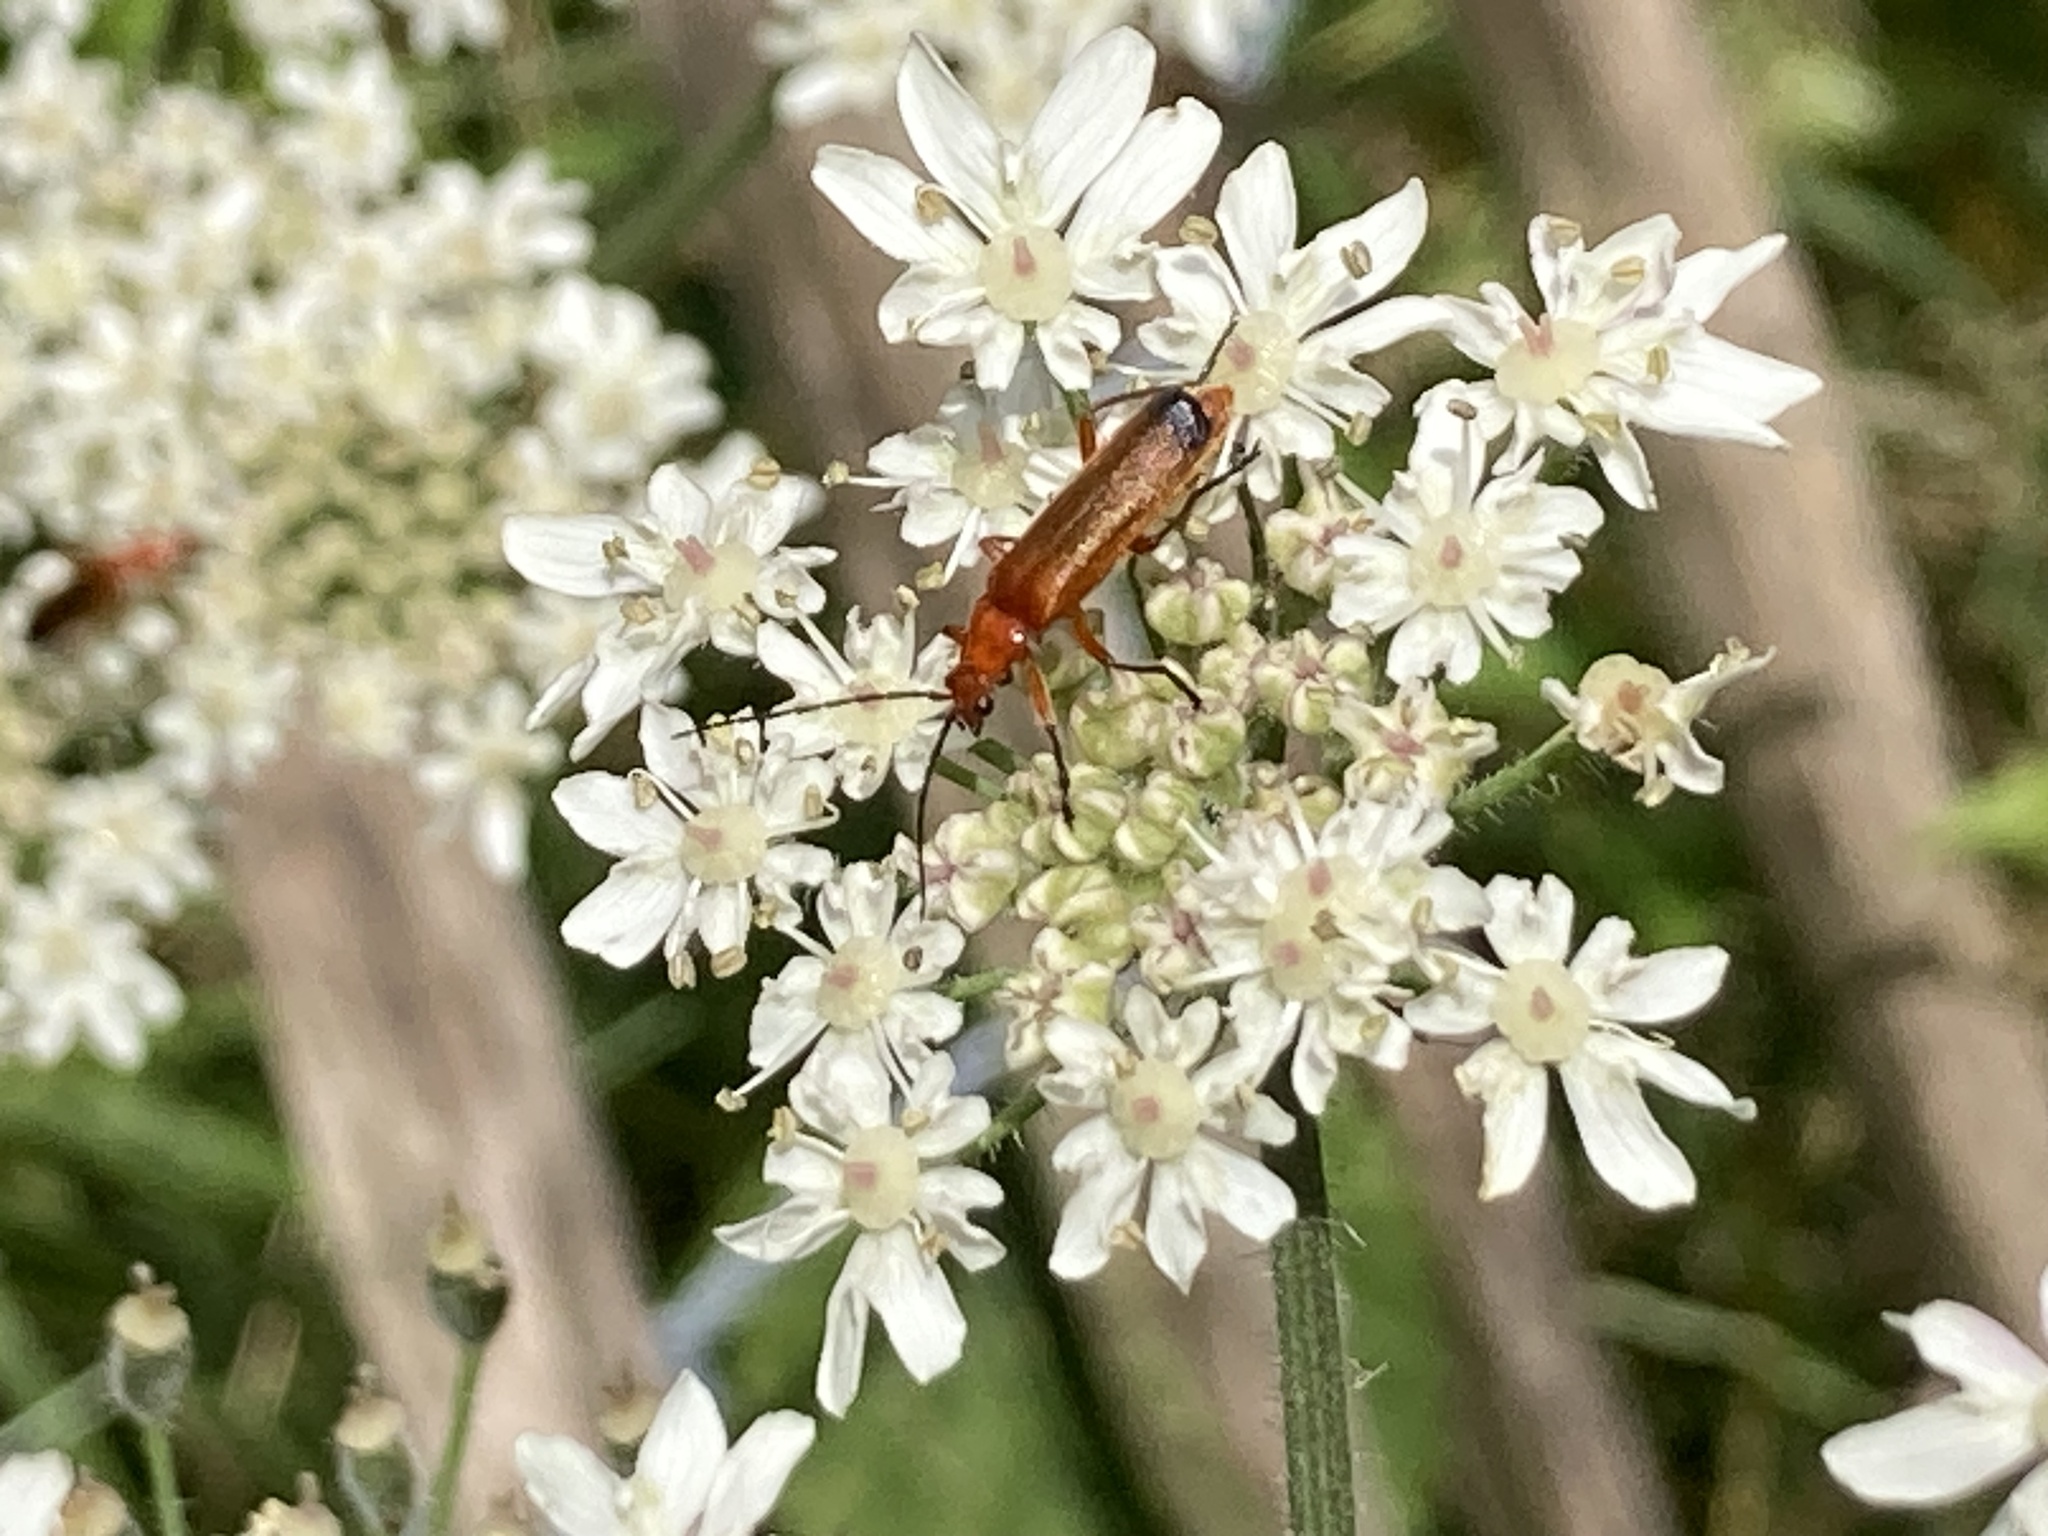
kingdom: Animalia
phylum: Arthropoda
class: Insecta
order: Coleoptera
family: Cantharidae
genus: Rhagonycha
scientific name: Rhagonycha fulva
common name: Common red soldier beetle
